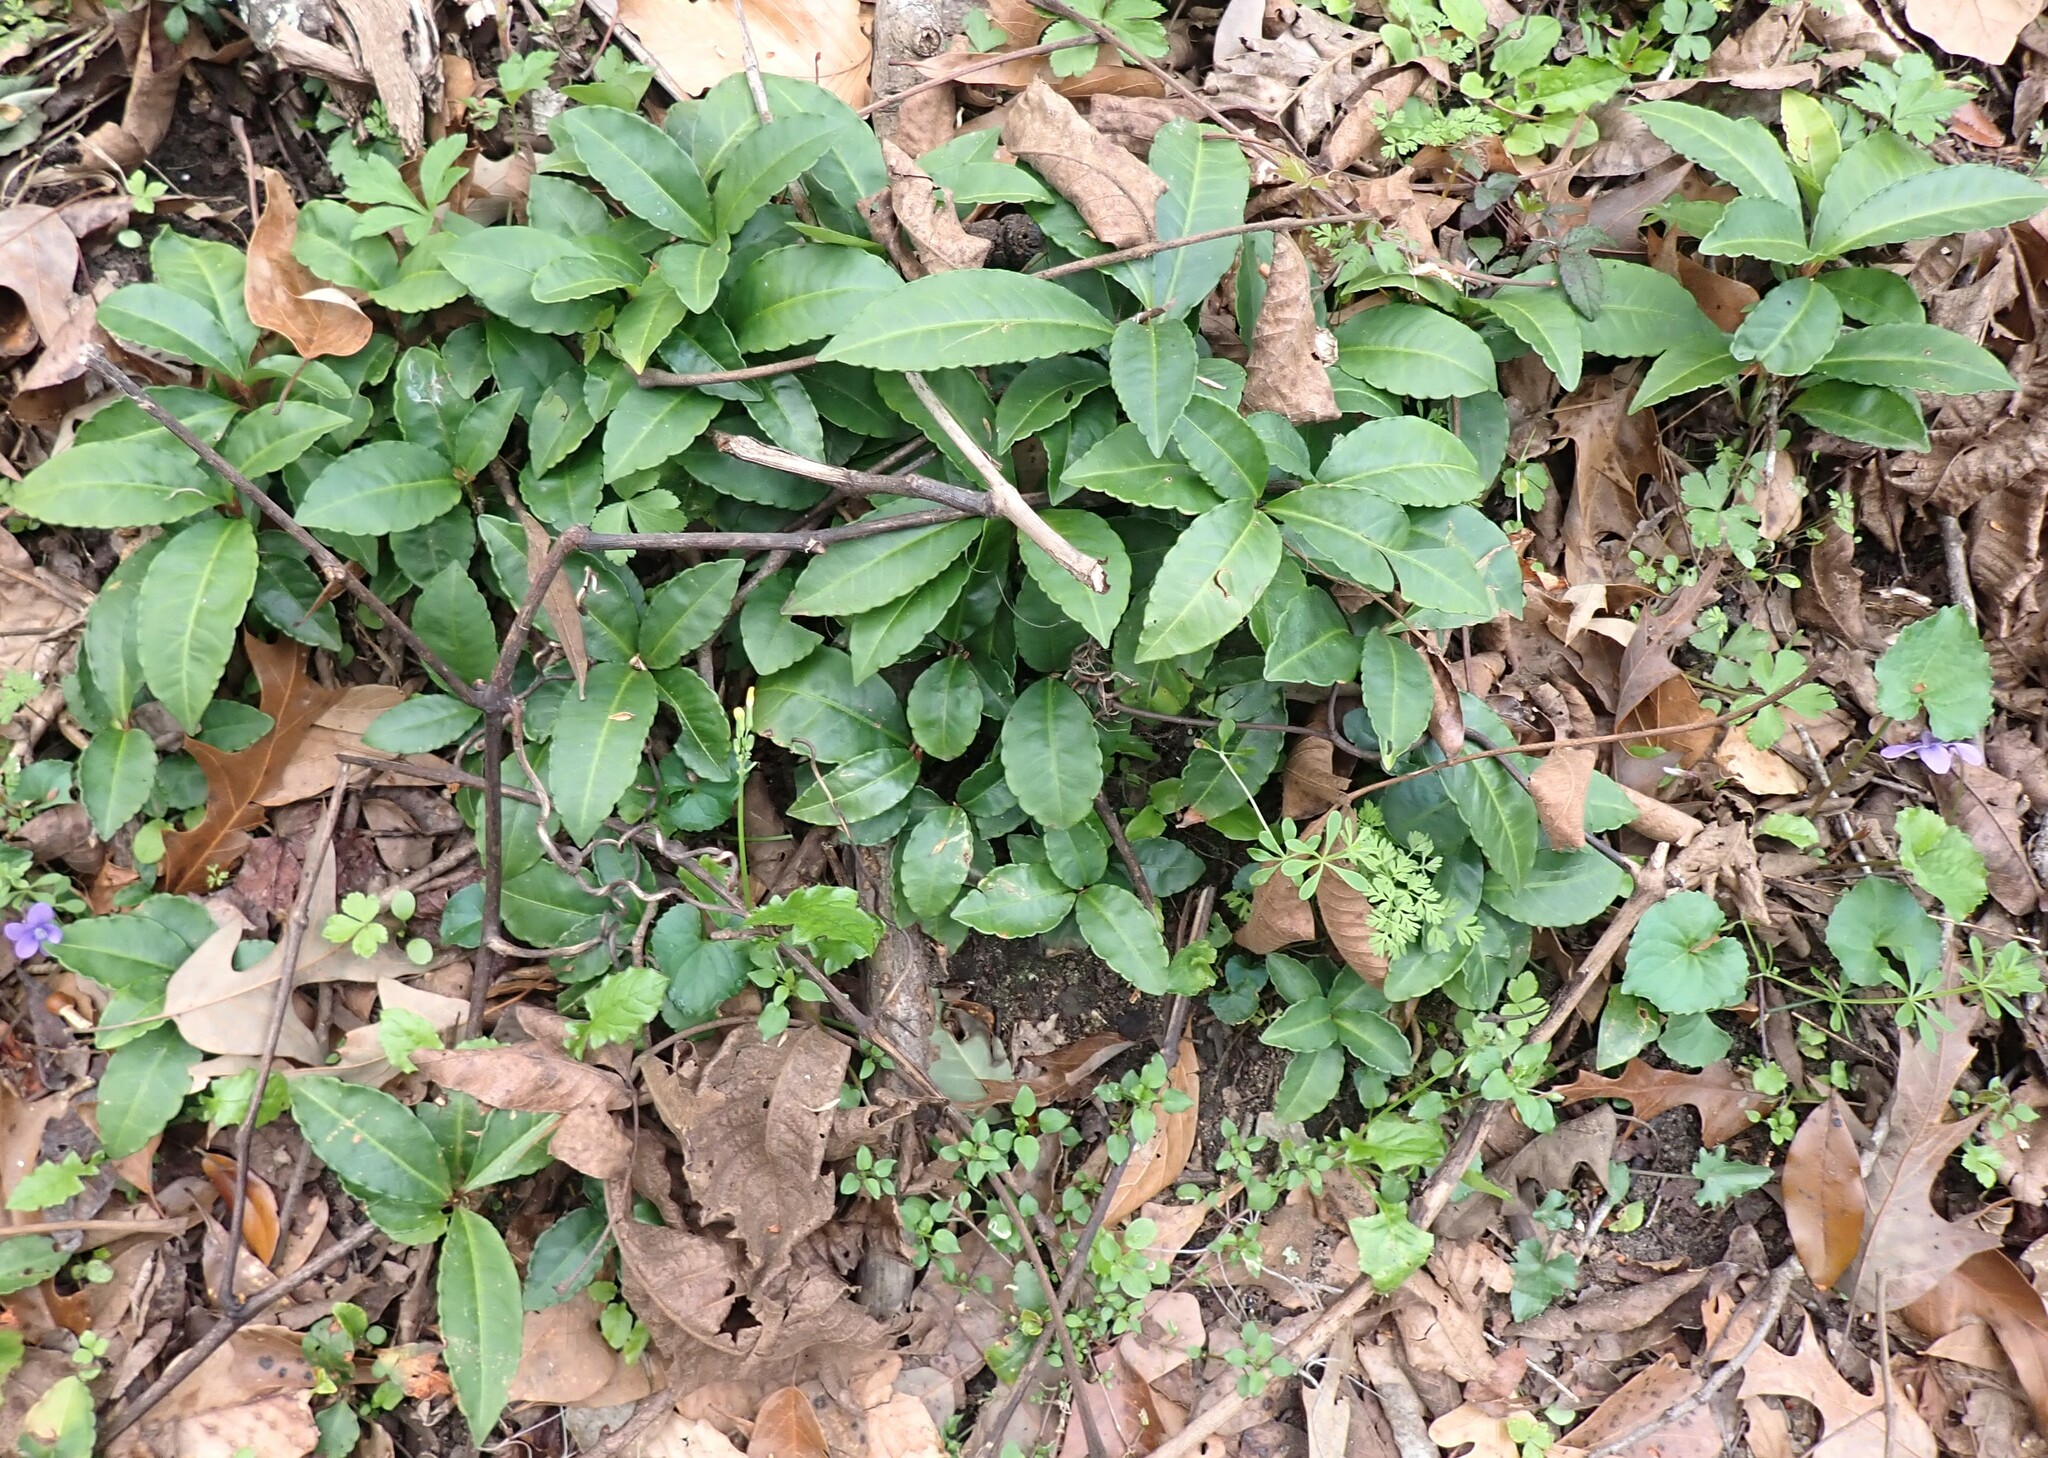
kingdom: Plantae
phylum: Tracheophyta
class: Magnoliopsida
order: Ericales
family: Primulaceae
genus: Ardisia
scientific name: Ardisia crenata
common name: Hen's eyes
